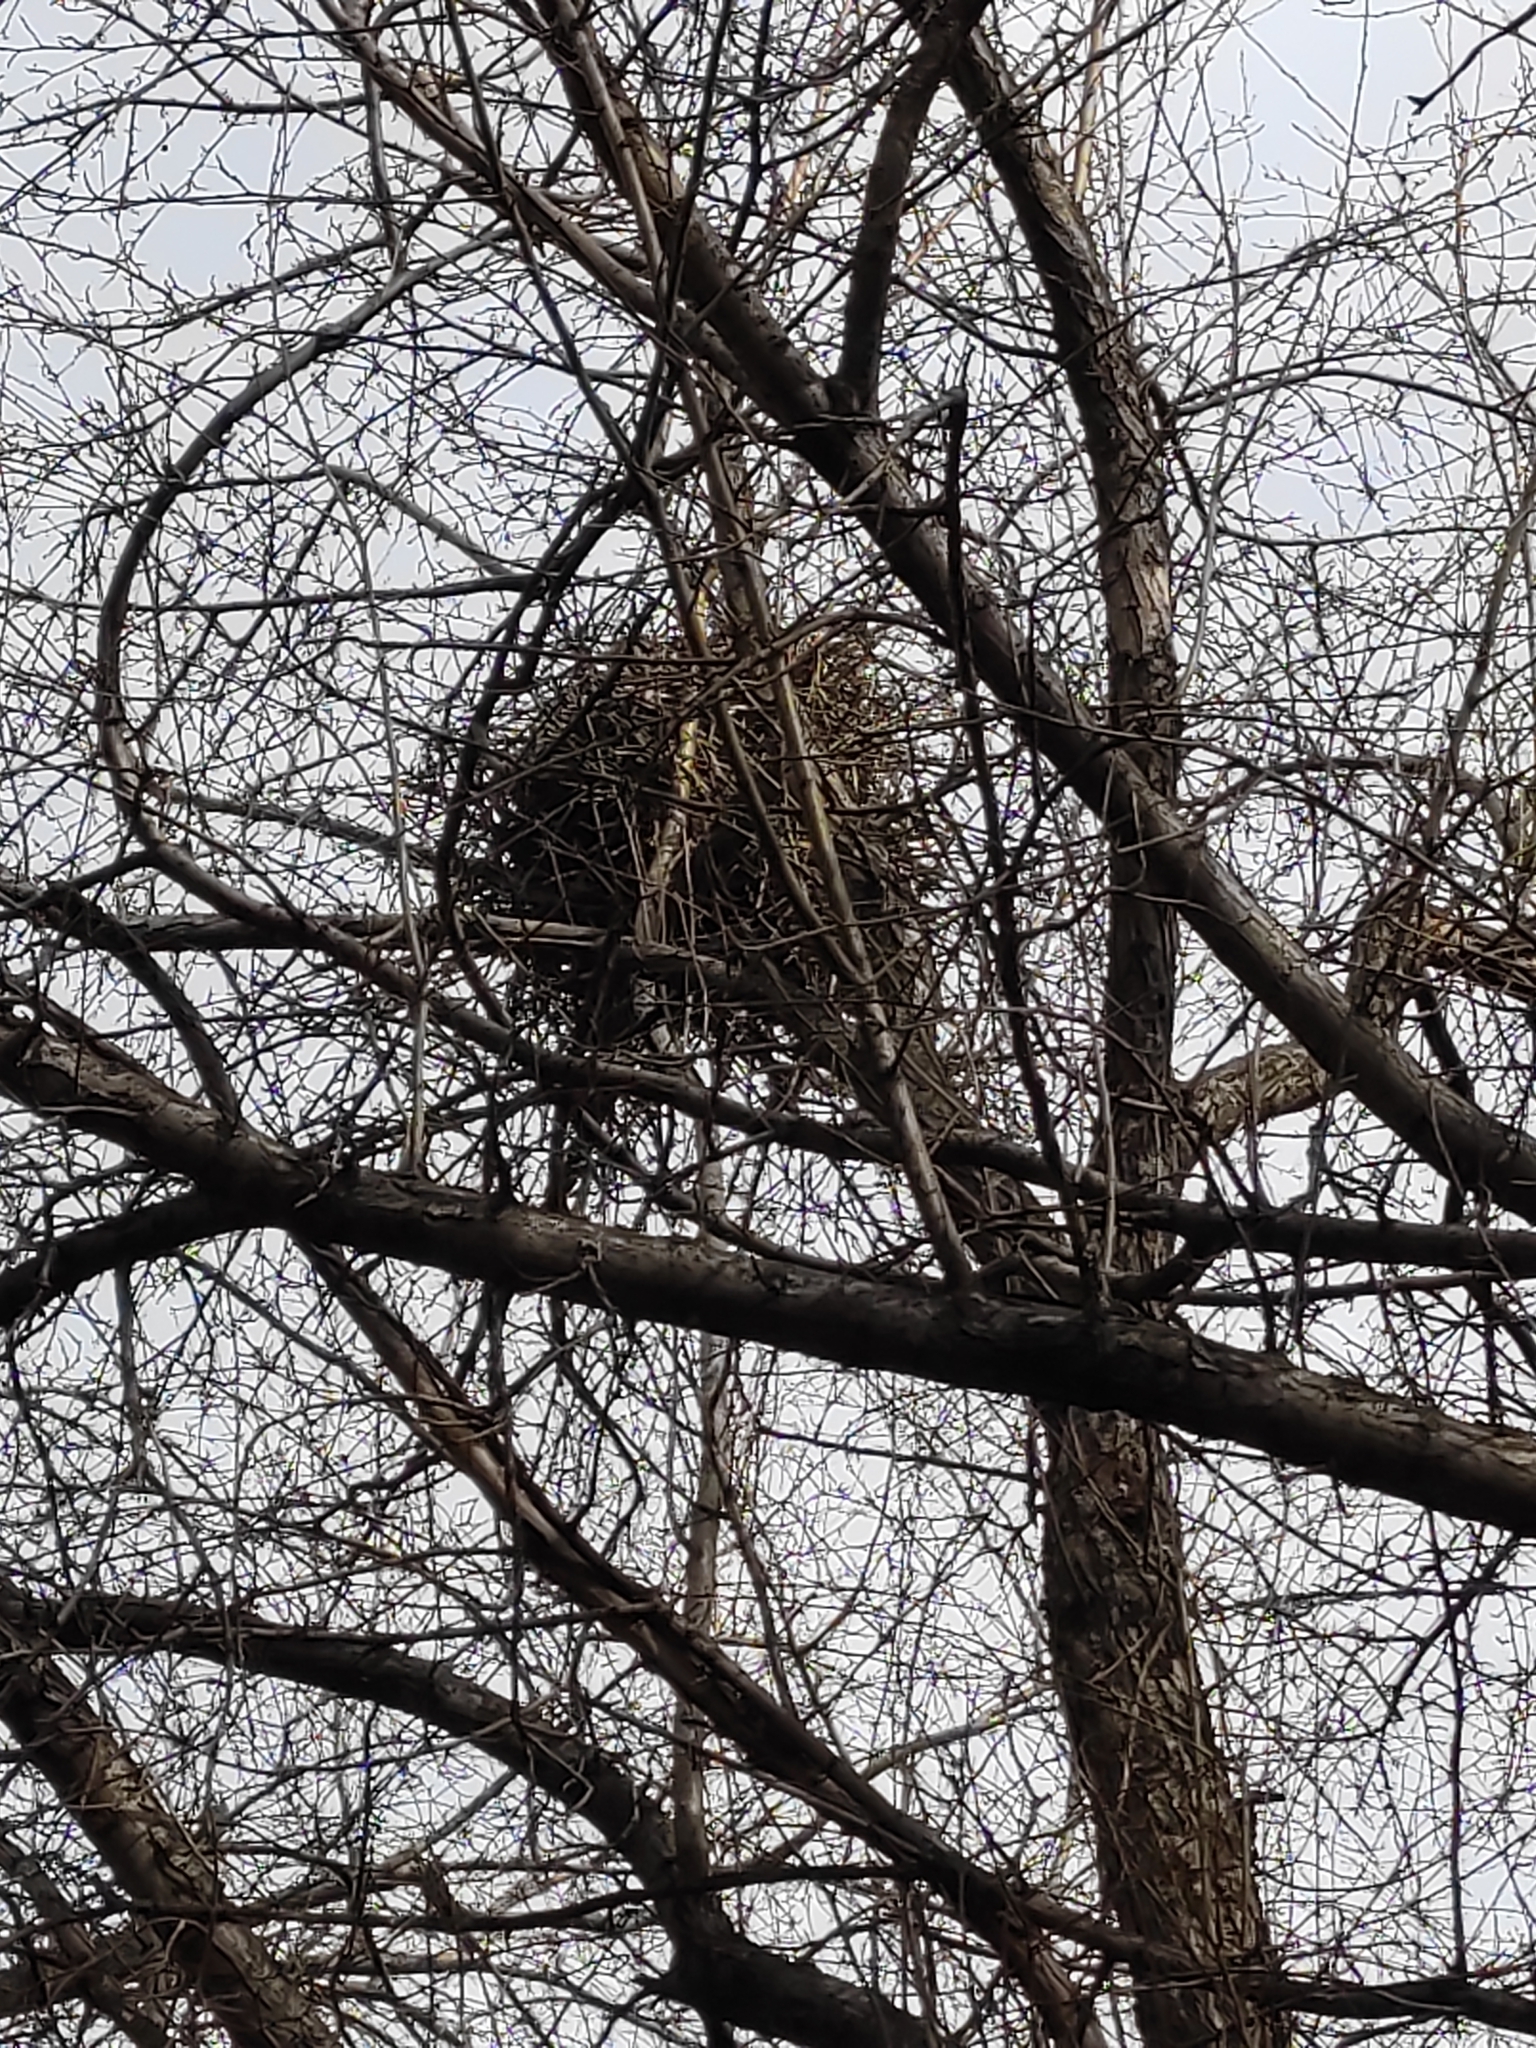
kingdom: Animalia
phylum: Chordata
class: Aves
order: Passeriformes
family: Corvidae
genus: Pica
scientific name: Pica pica
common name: Eurasian magpie
